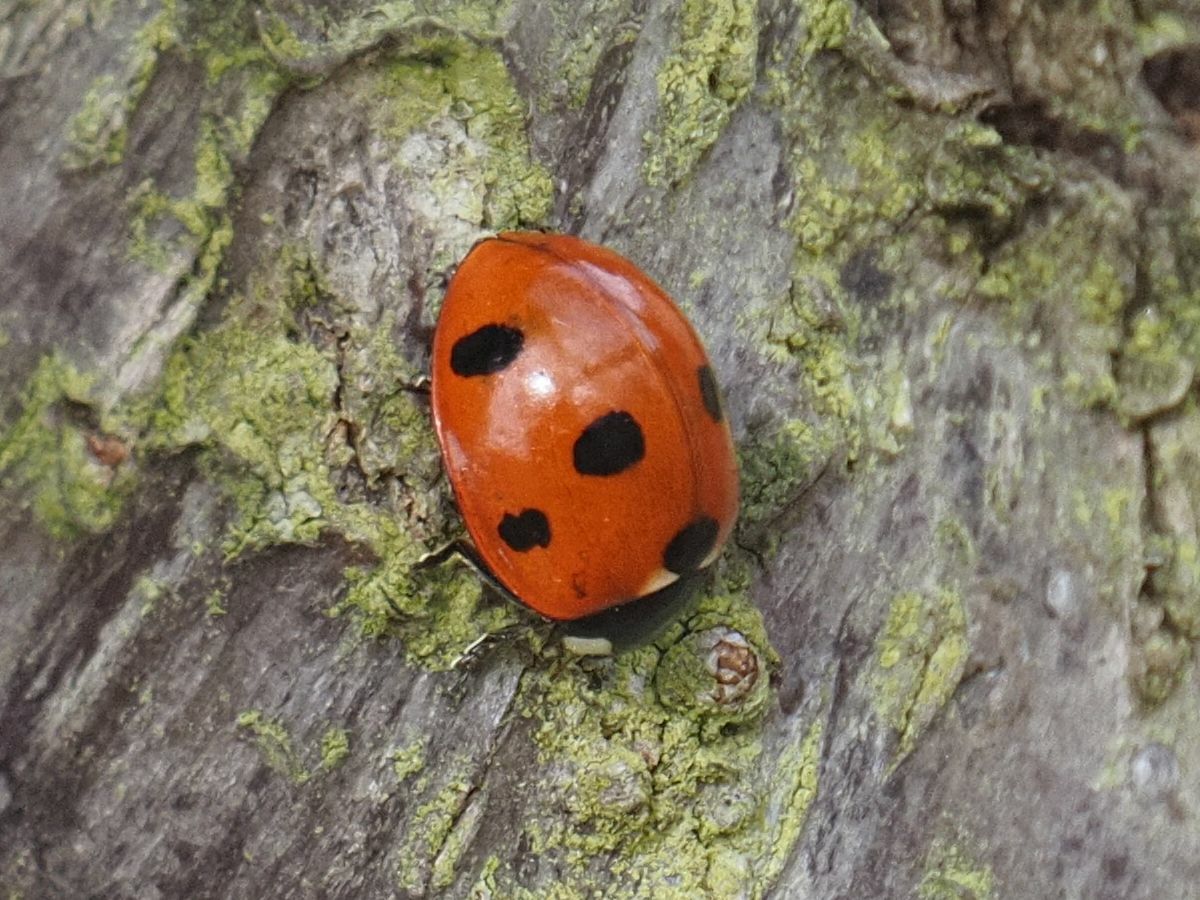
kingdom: Animalia
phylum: Arthropoda
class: Insecta
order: Coleoptera
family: Coccinellidae
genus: Coccinella
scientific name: Coccinella septempunctata
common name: Sevenspotted lady beetle
